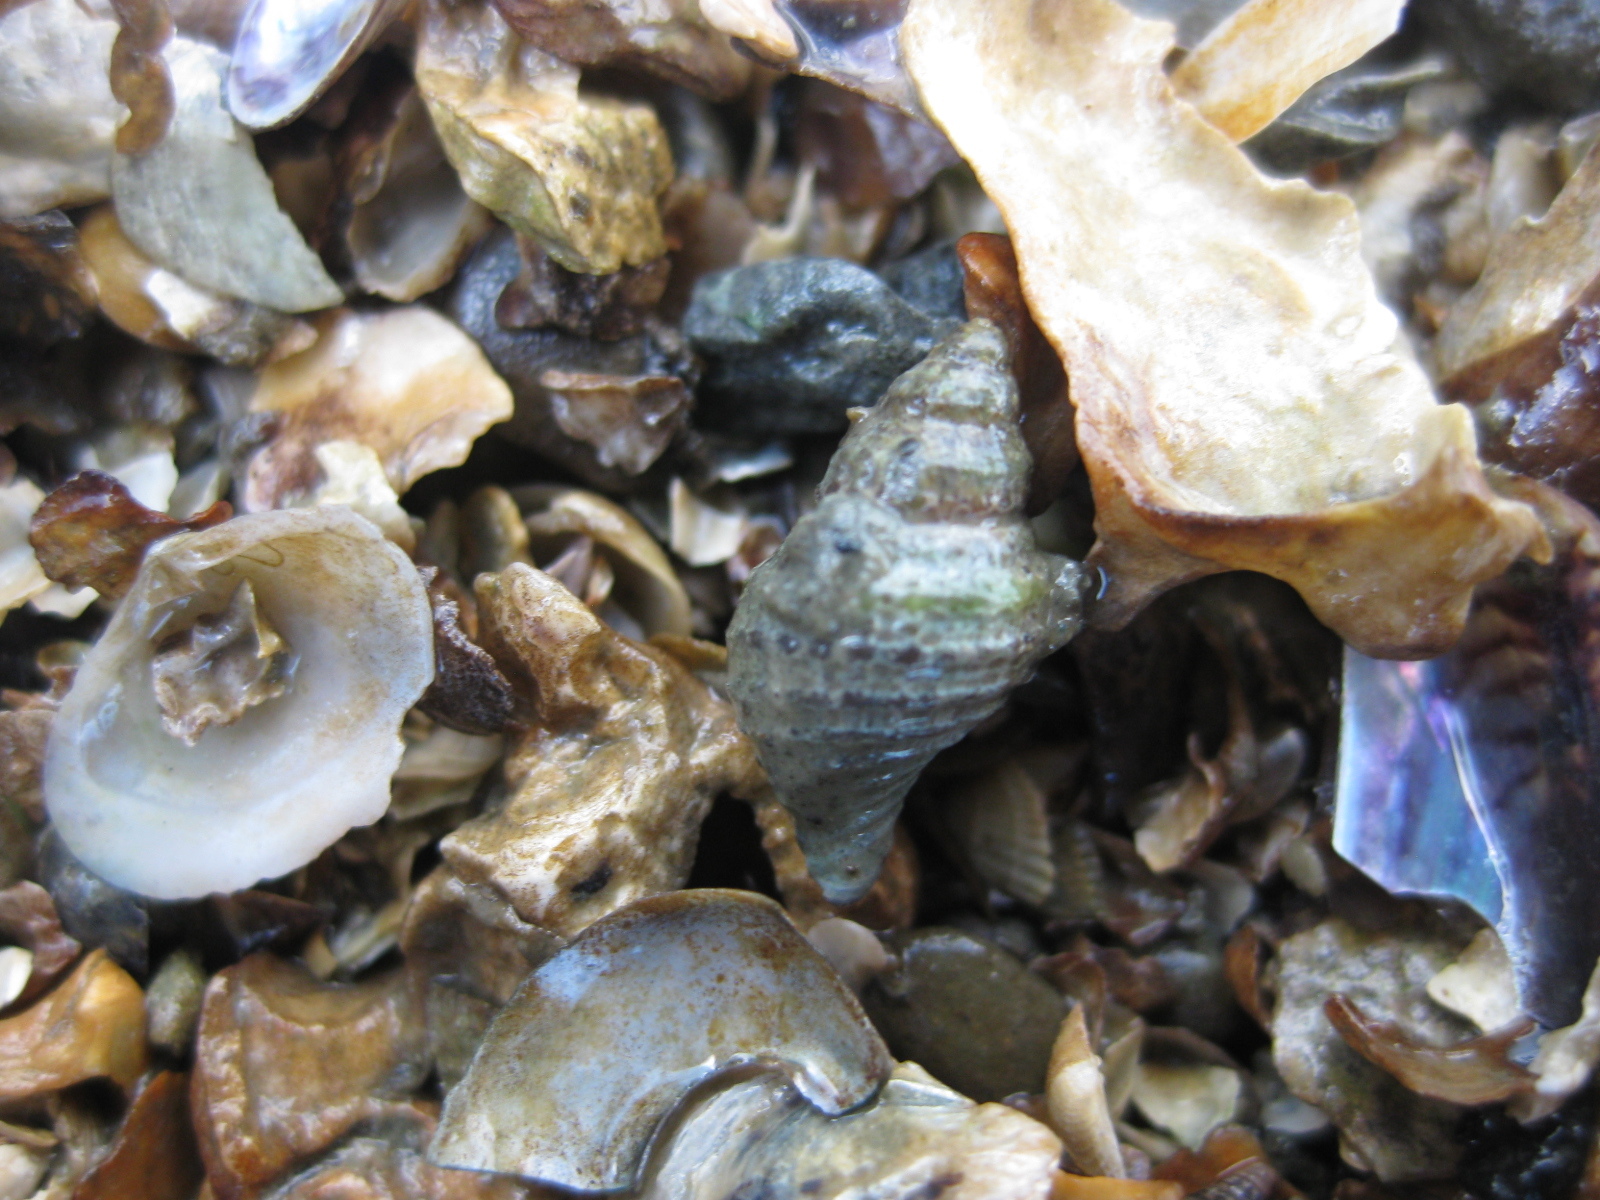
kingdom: Animalia
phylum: Mollusca
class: Gastropoda
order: Neogastropoda
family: Muricidae
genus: Xymene
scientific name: Xymene plebeius
